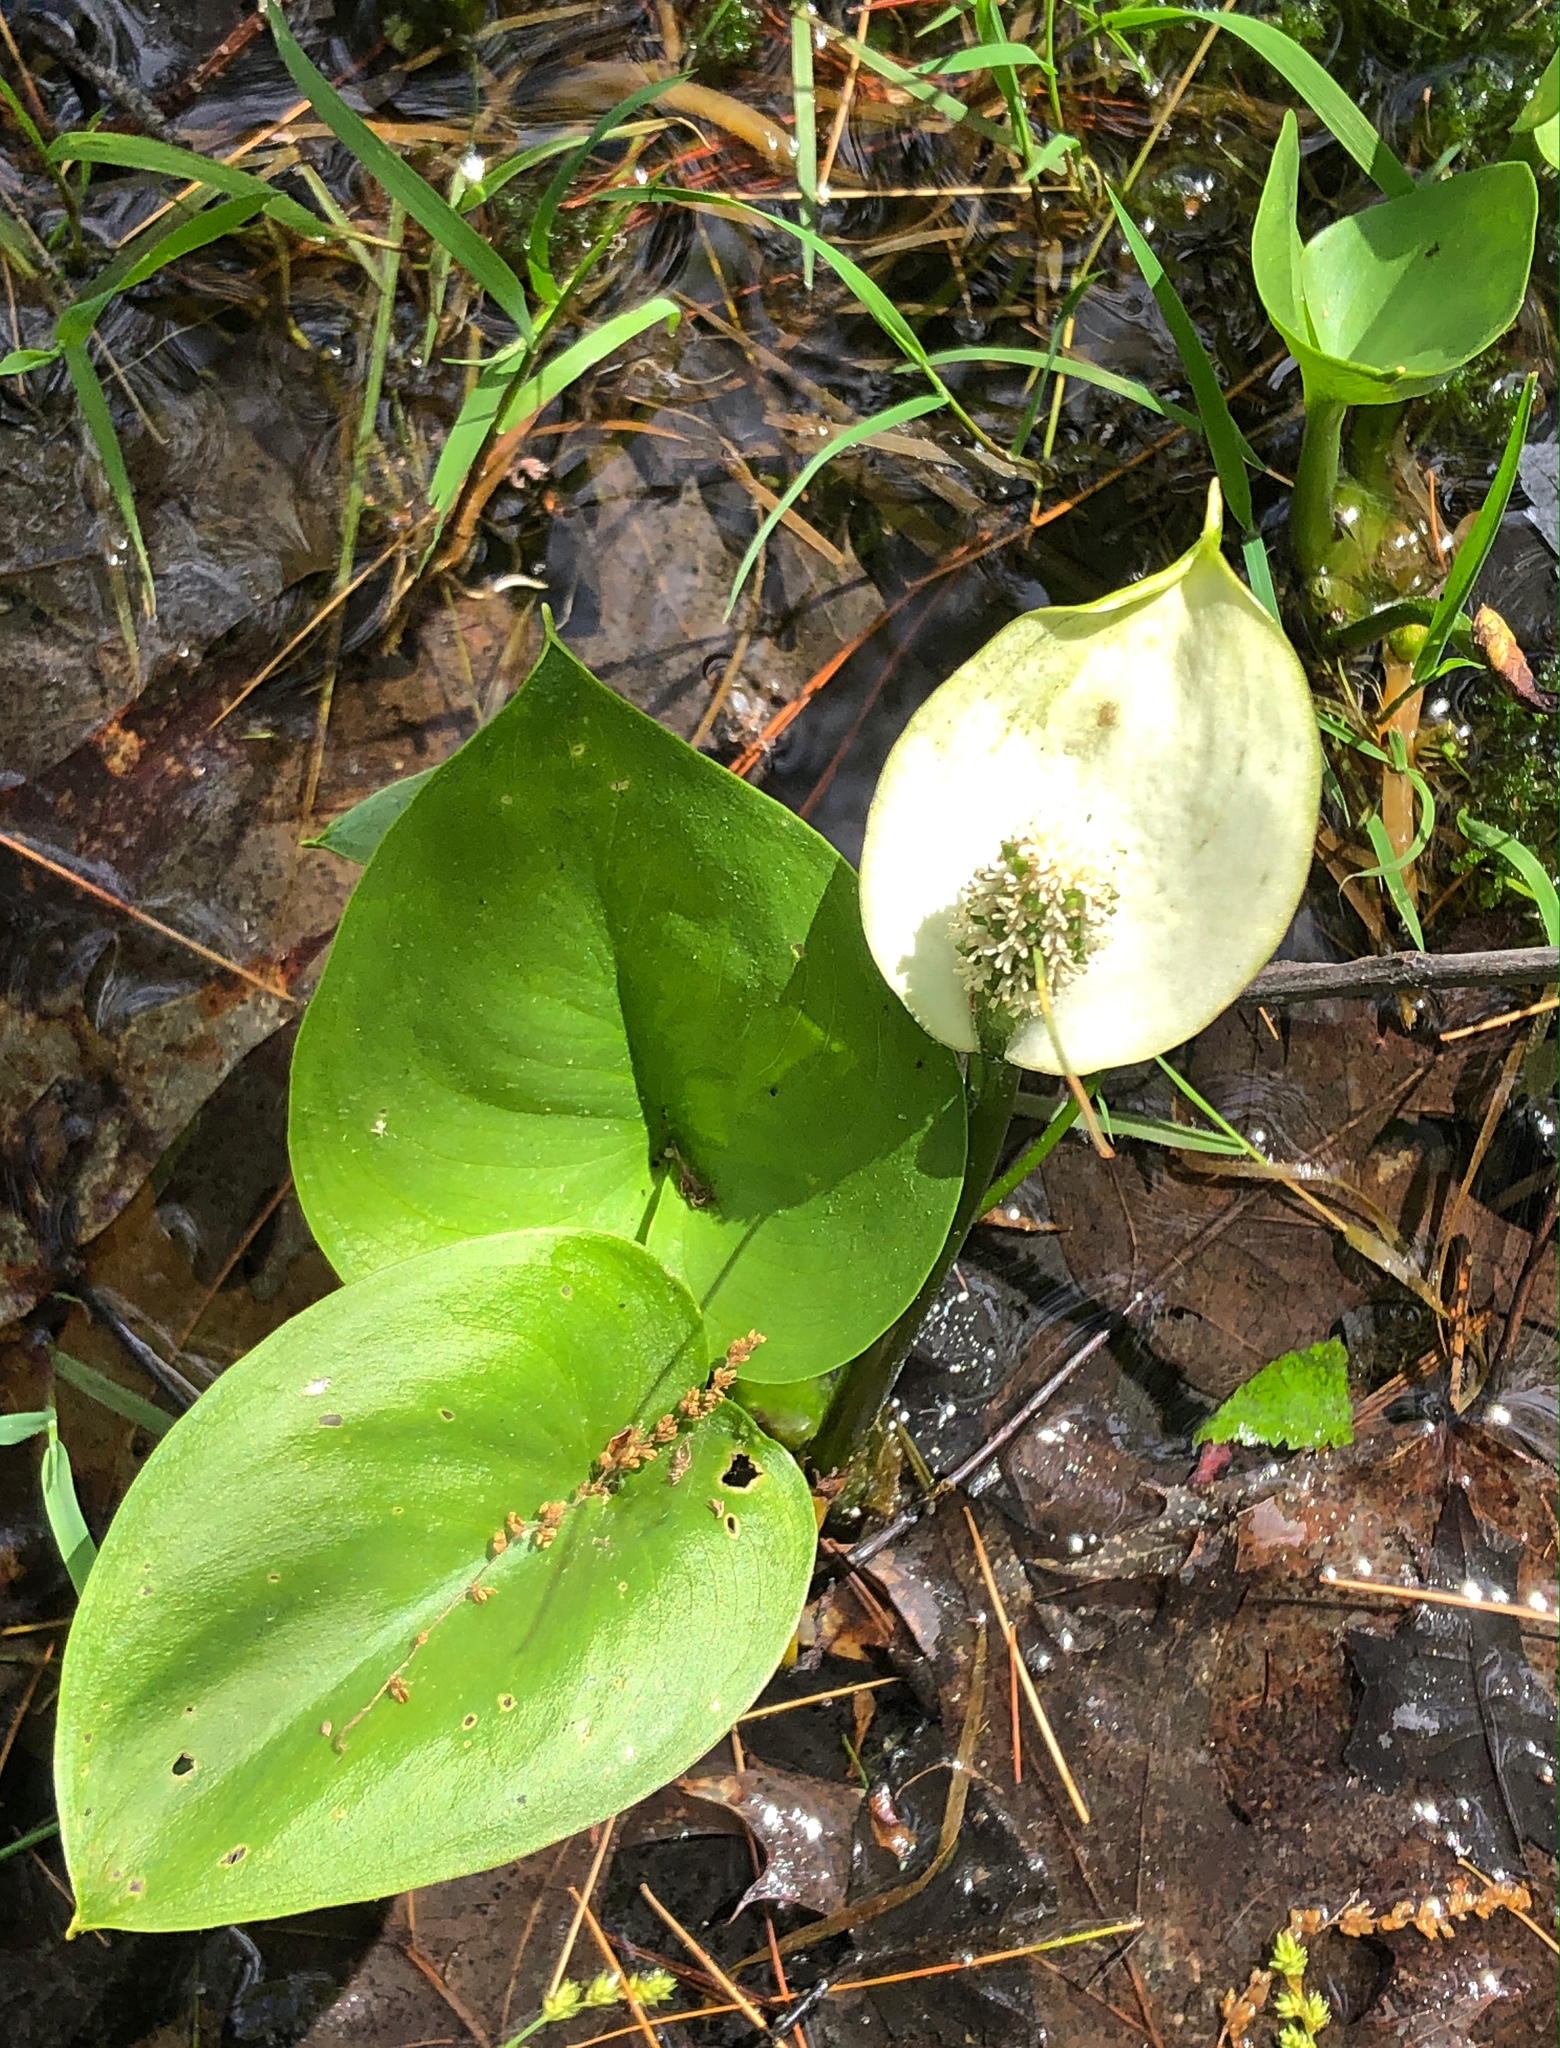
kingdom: Plantae
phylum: Tracheophyta
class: Liliopsida
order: Alismatales
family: Araceae
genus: Calla
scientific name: Calla palustris
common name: Bog arum
